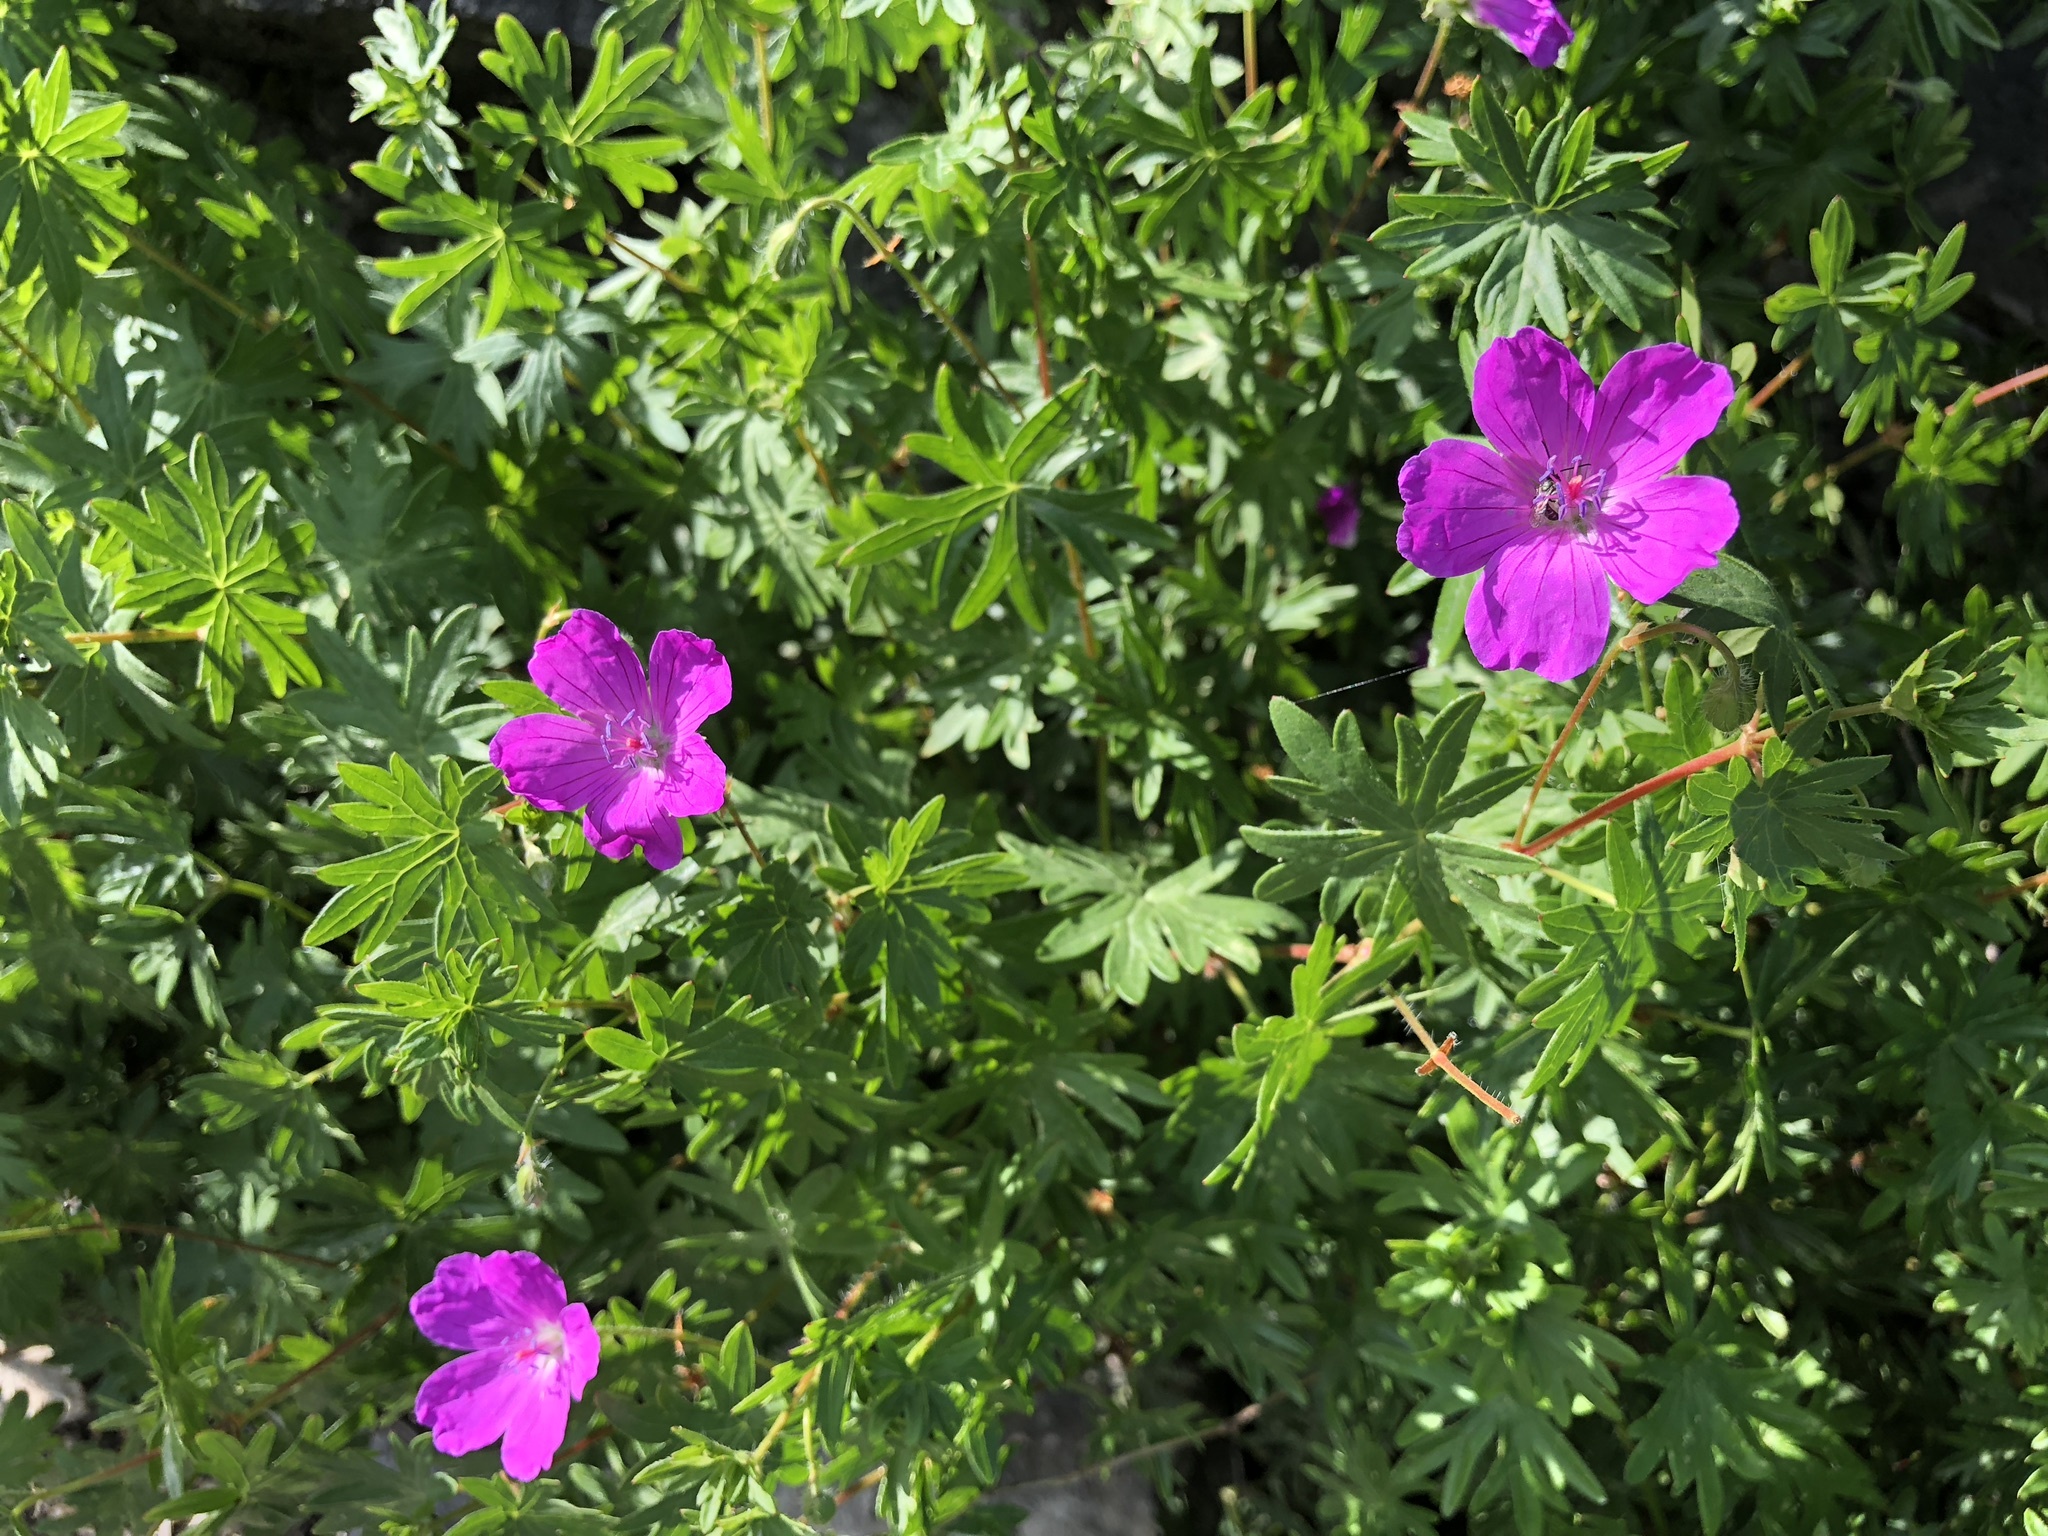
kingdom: Plantae
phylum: Tracheophyta
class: Magnoliopsida
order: Geraniales
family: Geraniaceae
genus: Geranium
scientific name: Geranium sanguineum
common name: Bloody crane's-bill
